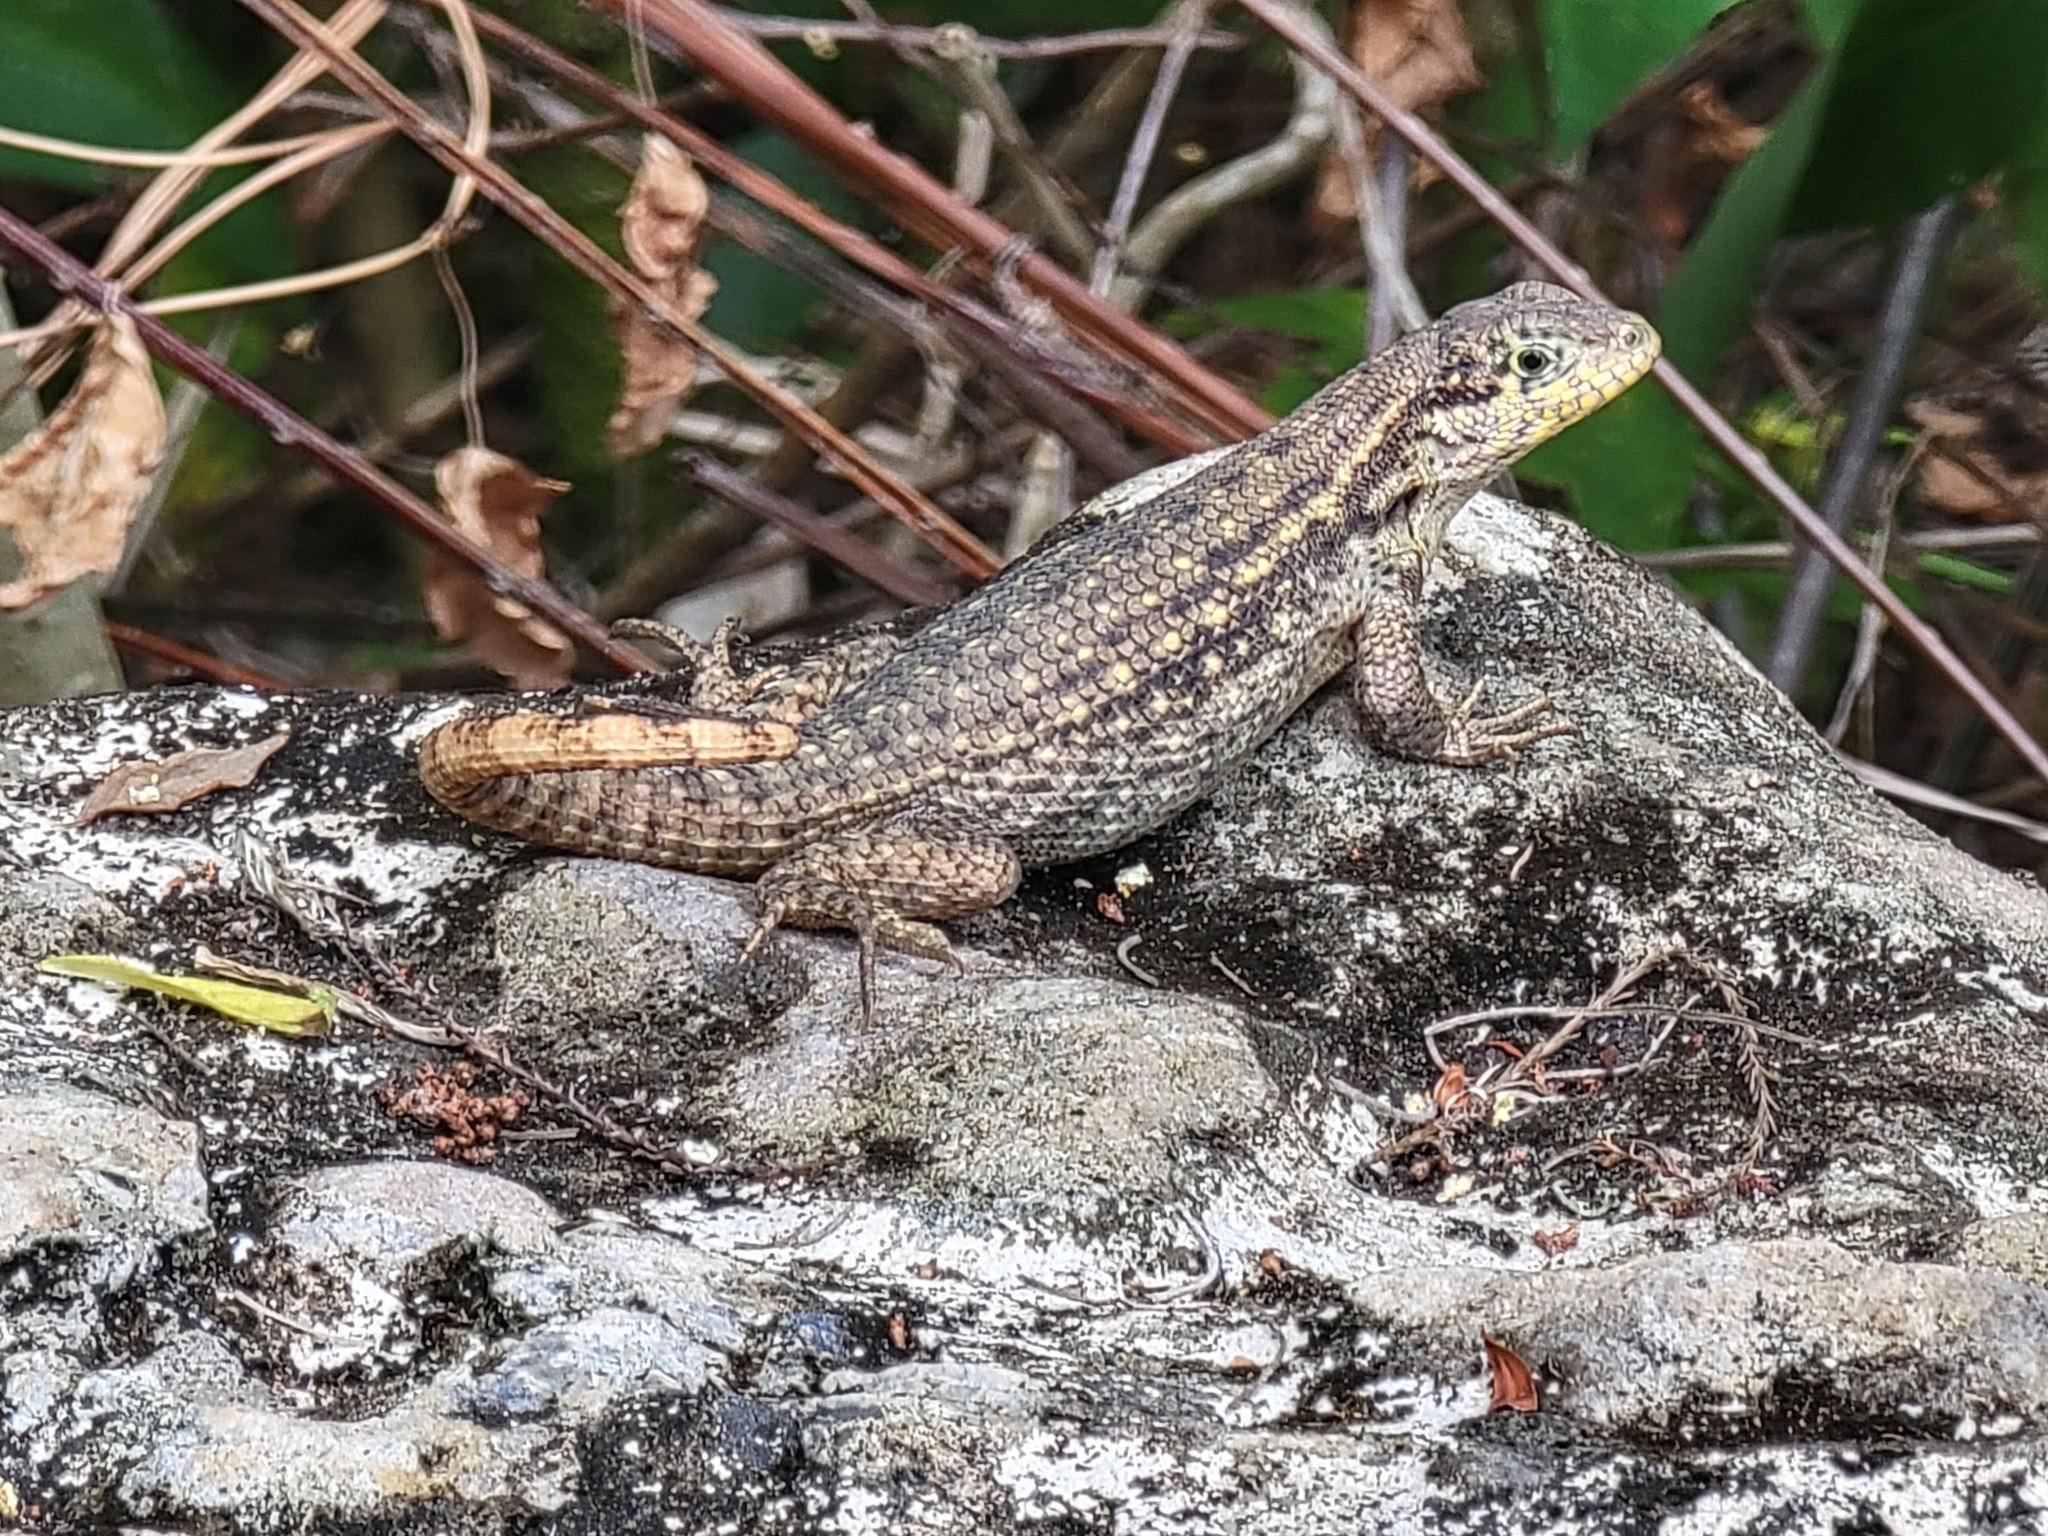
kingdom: Animalia
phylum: Chordata
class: Squamata
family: Leiocephalidae
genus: Leiocephalus
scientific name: Leiocephalus carinatus
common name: Northern curly-tailed lizard
